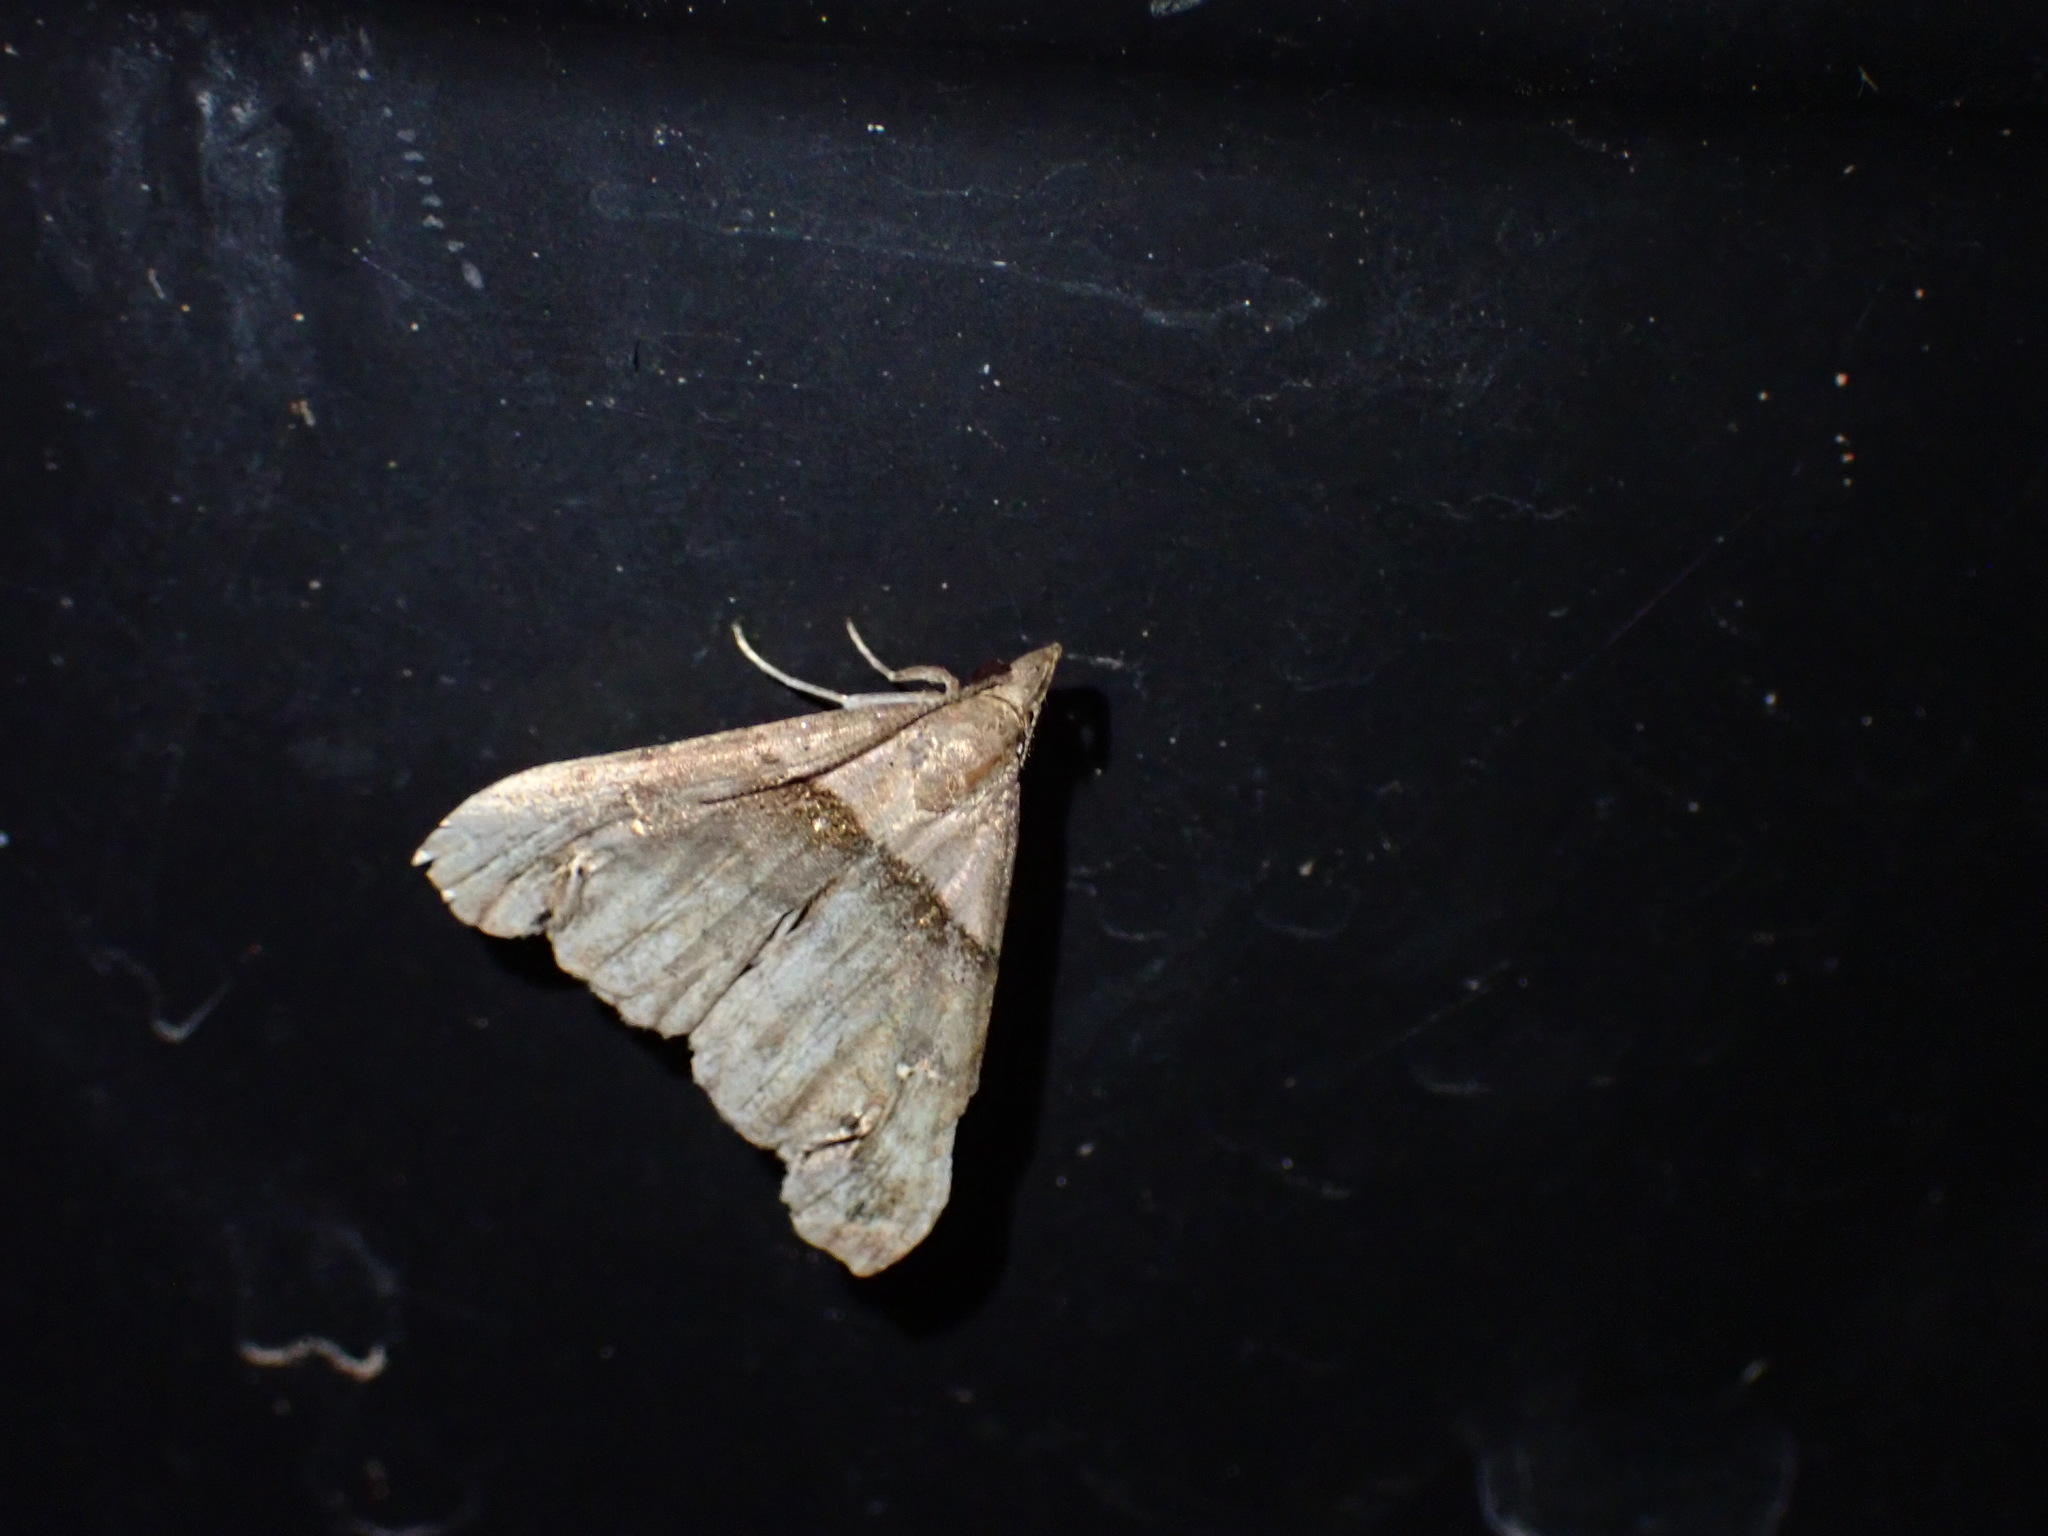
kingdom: Animalia
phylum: Arthropoda
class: Insecta
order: Lepidoptera
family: Erebidae
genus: Lascoria
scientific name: Lascoria ambigualis
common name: Ambiguous moth
